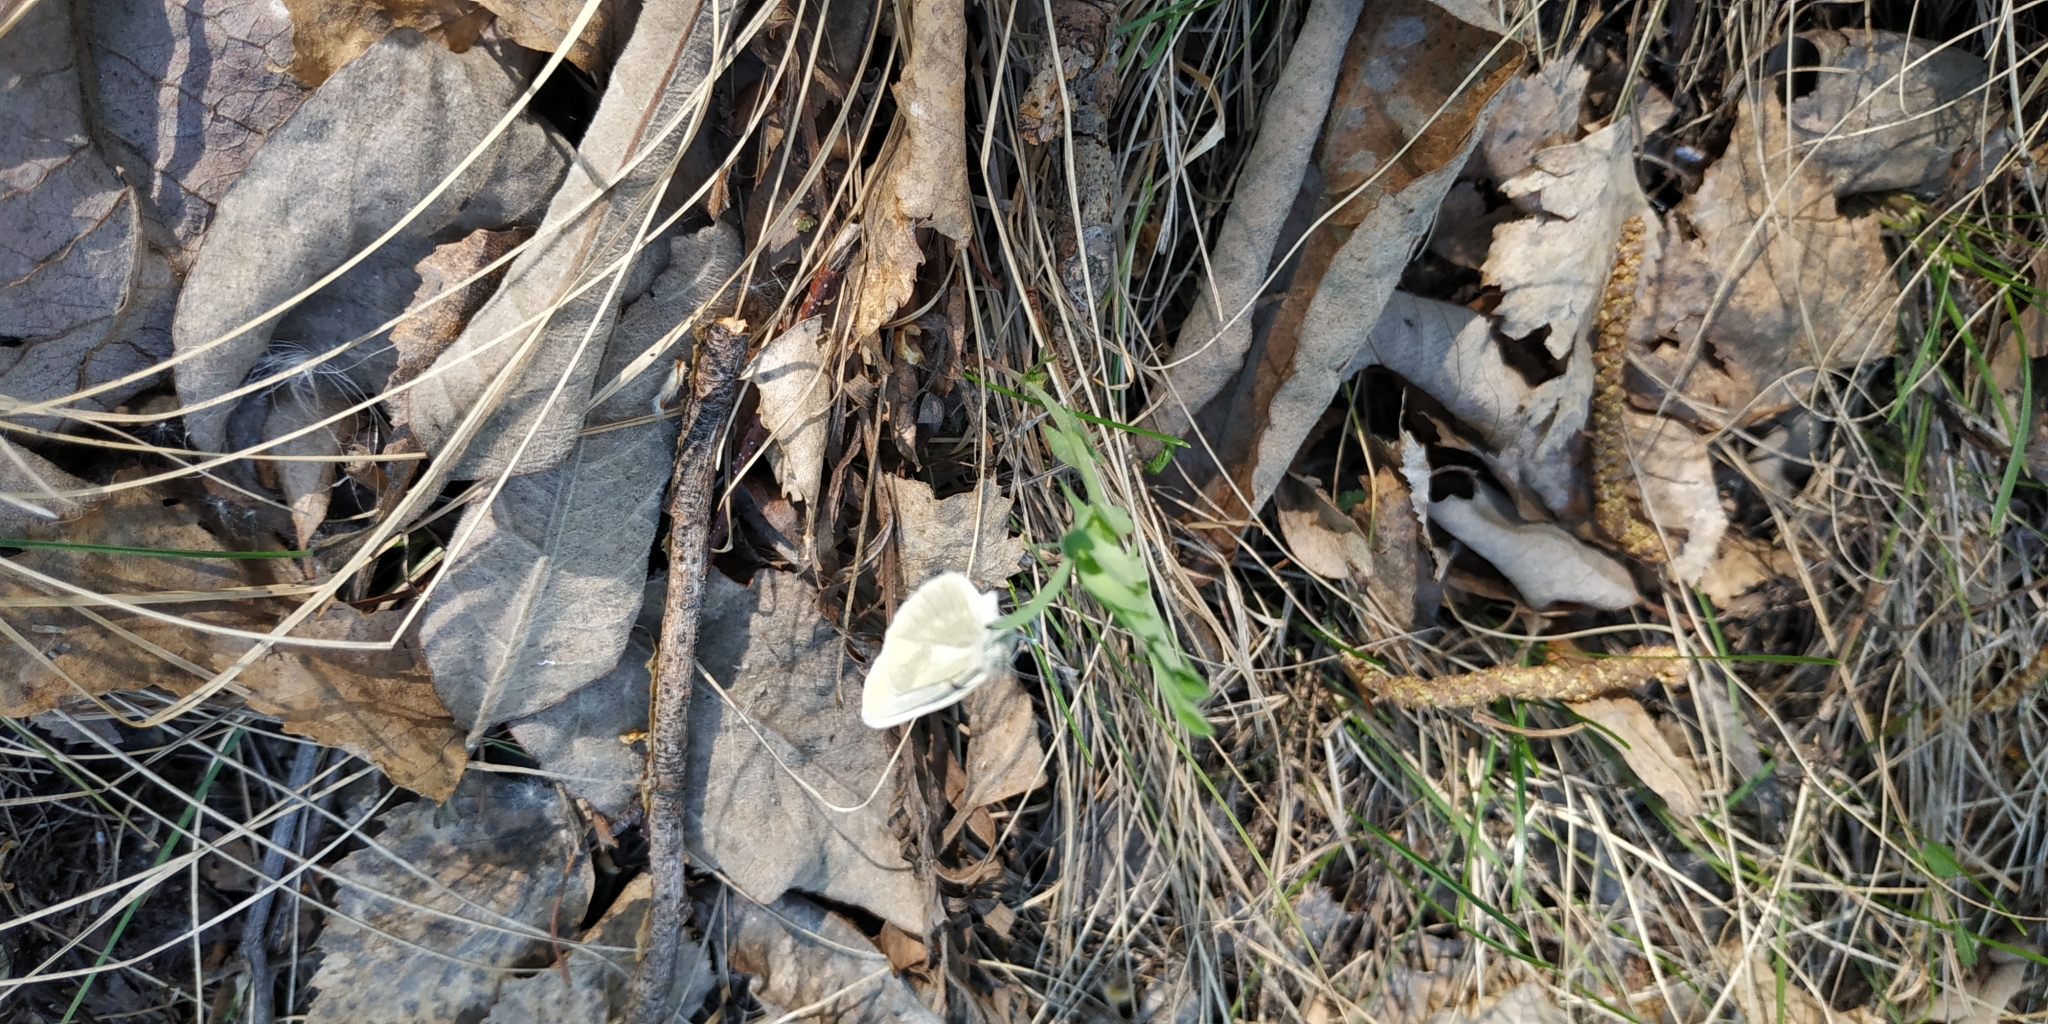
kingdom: Animalia
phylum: Arthropoda
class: Insecta
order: Lepidoptera
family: Pieridae
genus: Leptidea
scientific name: Leptidea sinapis
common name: Wood white
